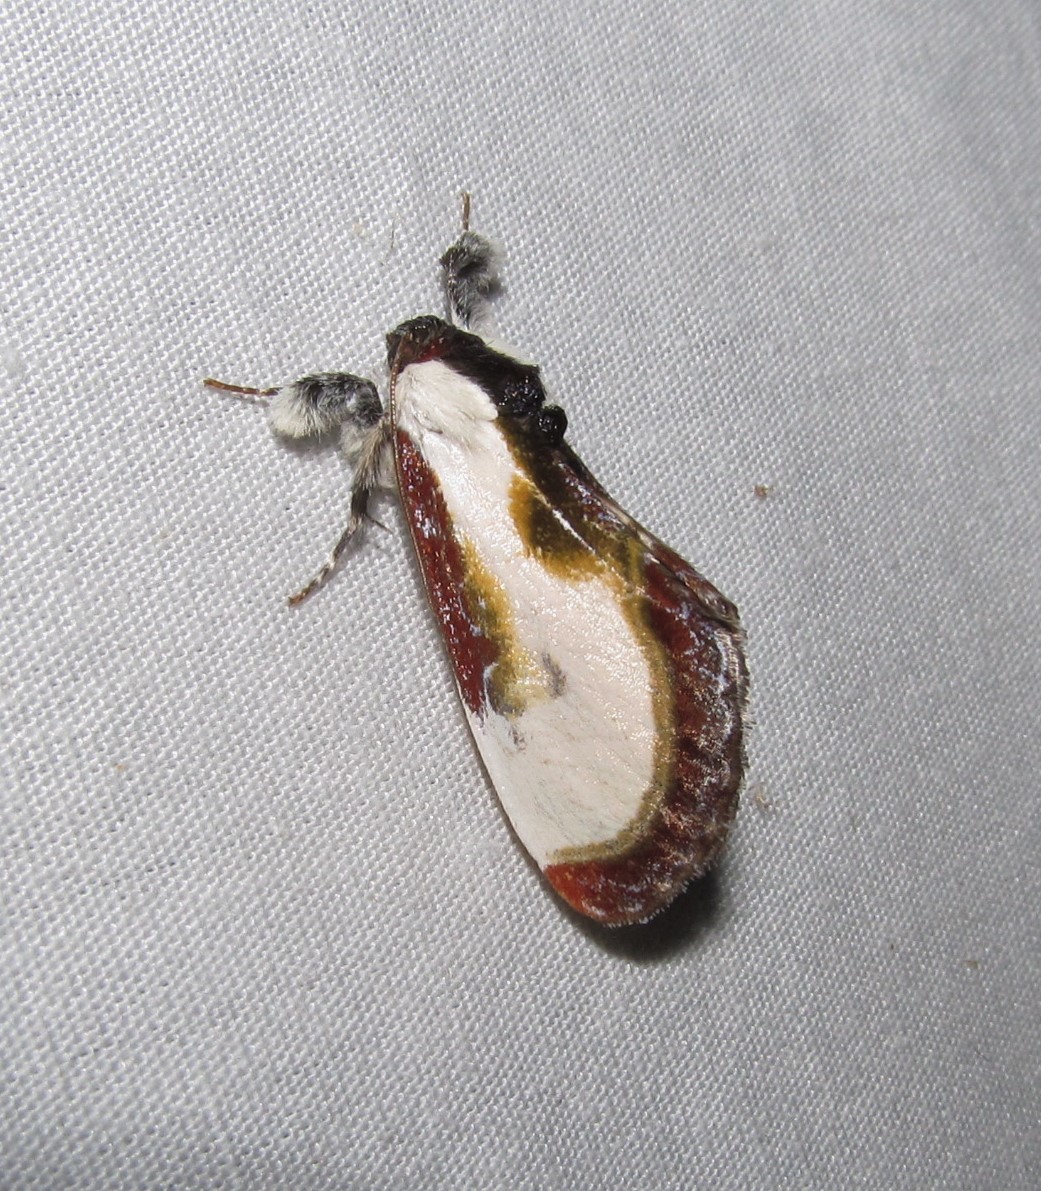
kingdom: Animalia
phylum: Arthropoda
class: Insecta
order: Lepidoptera
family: Noctuidae
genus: Eudryas
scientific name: Eudryas grata
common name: Beautiful wood-nymph
